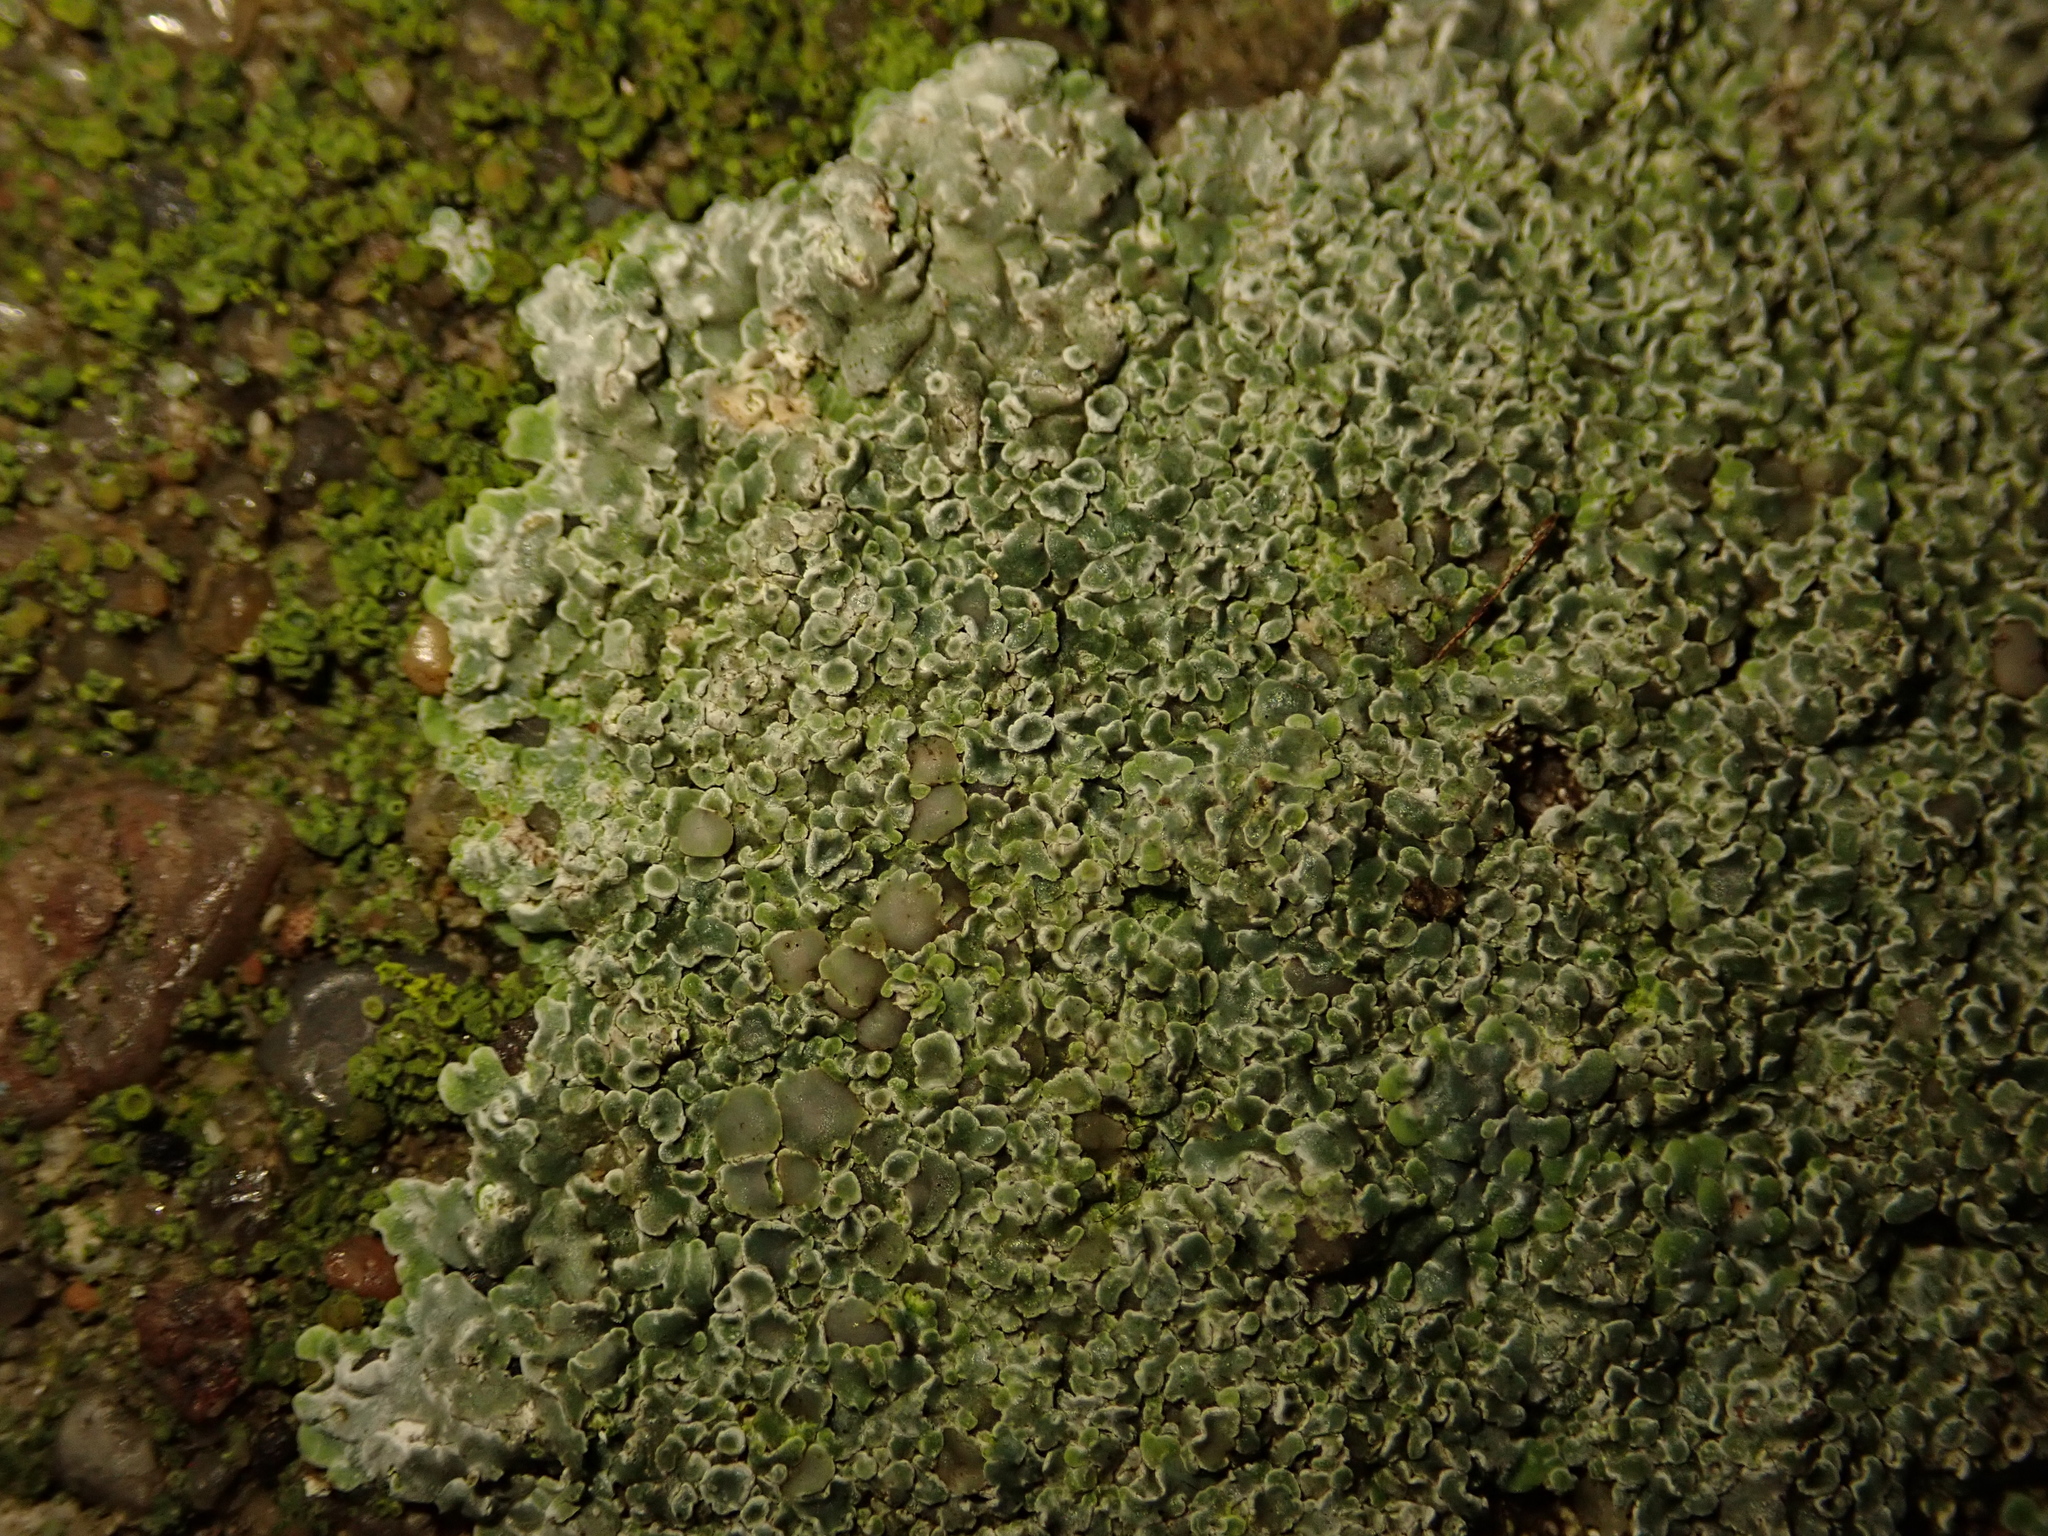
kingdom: Fungi
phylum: Ascomycota
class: Lecanoromycetes
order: Lecanorales
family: Lecanoraceae
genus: Protoparmeliopsis
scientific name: Protoparmeliopsis muralis
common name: Stonewall rim lichen
